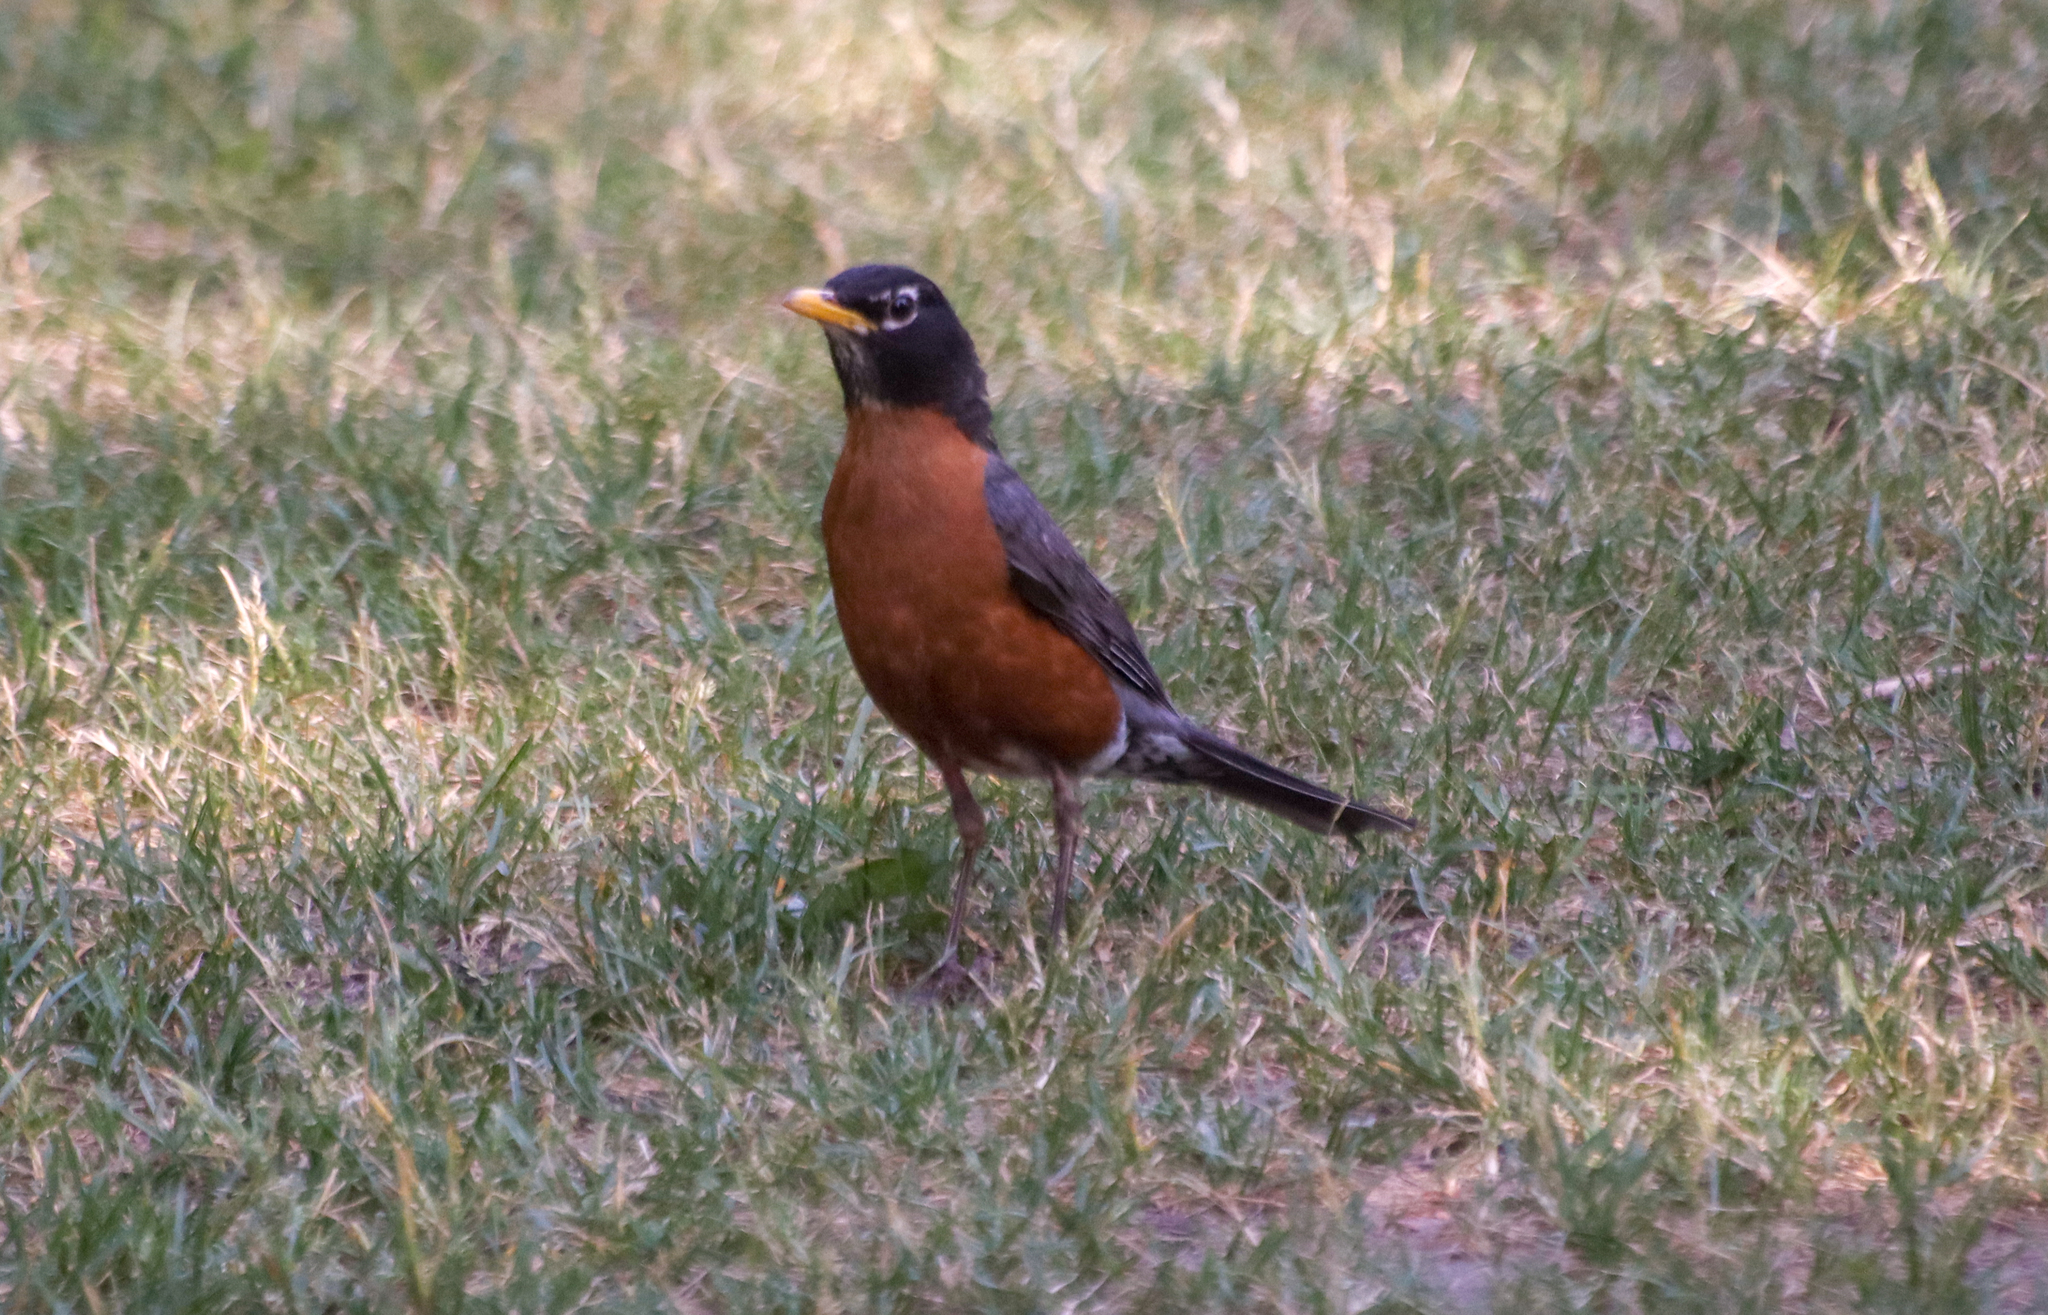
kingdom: Animalia
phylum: Chordata
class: Aves
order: Passeriformes
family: Turdidae
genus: Turdus
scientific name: Turdus migratorius
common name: American robin
